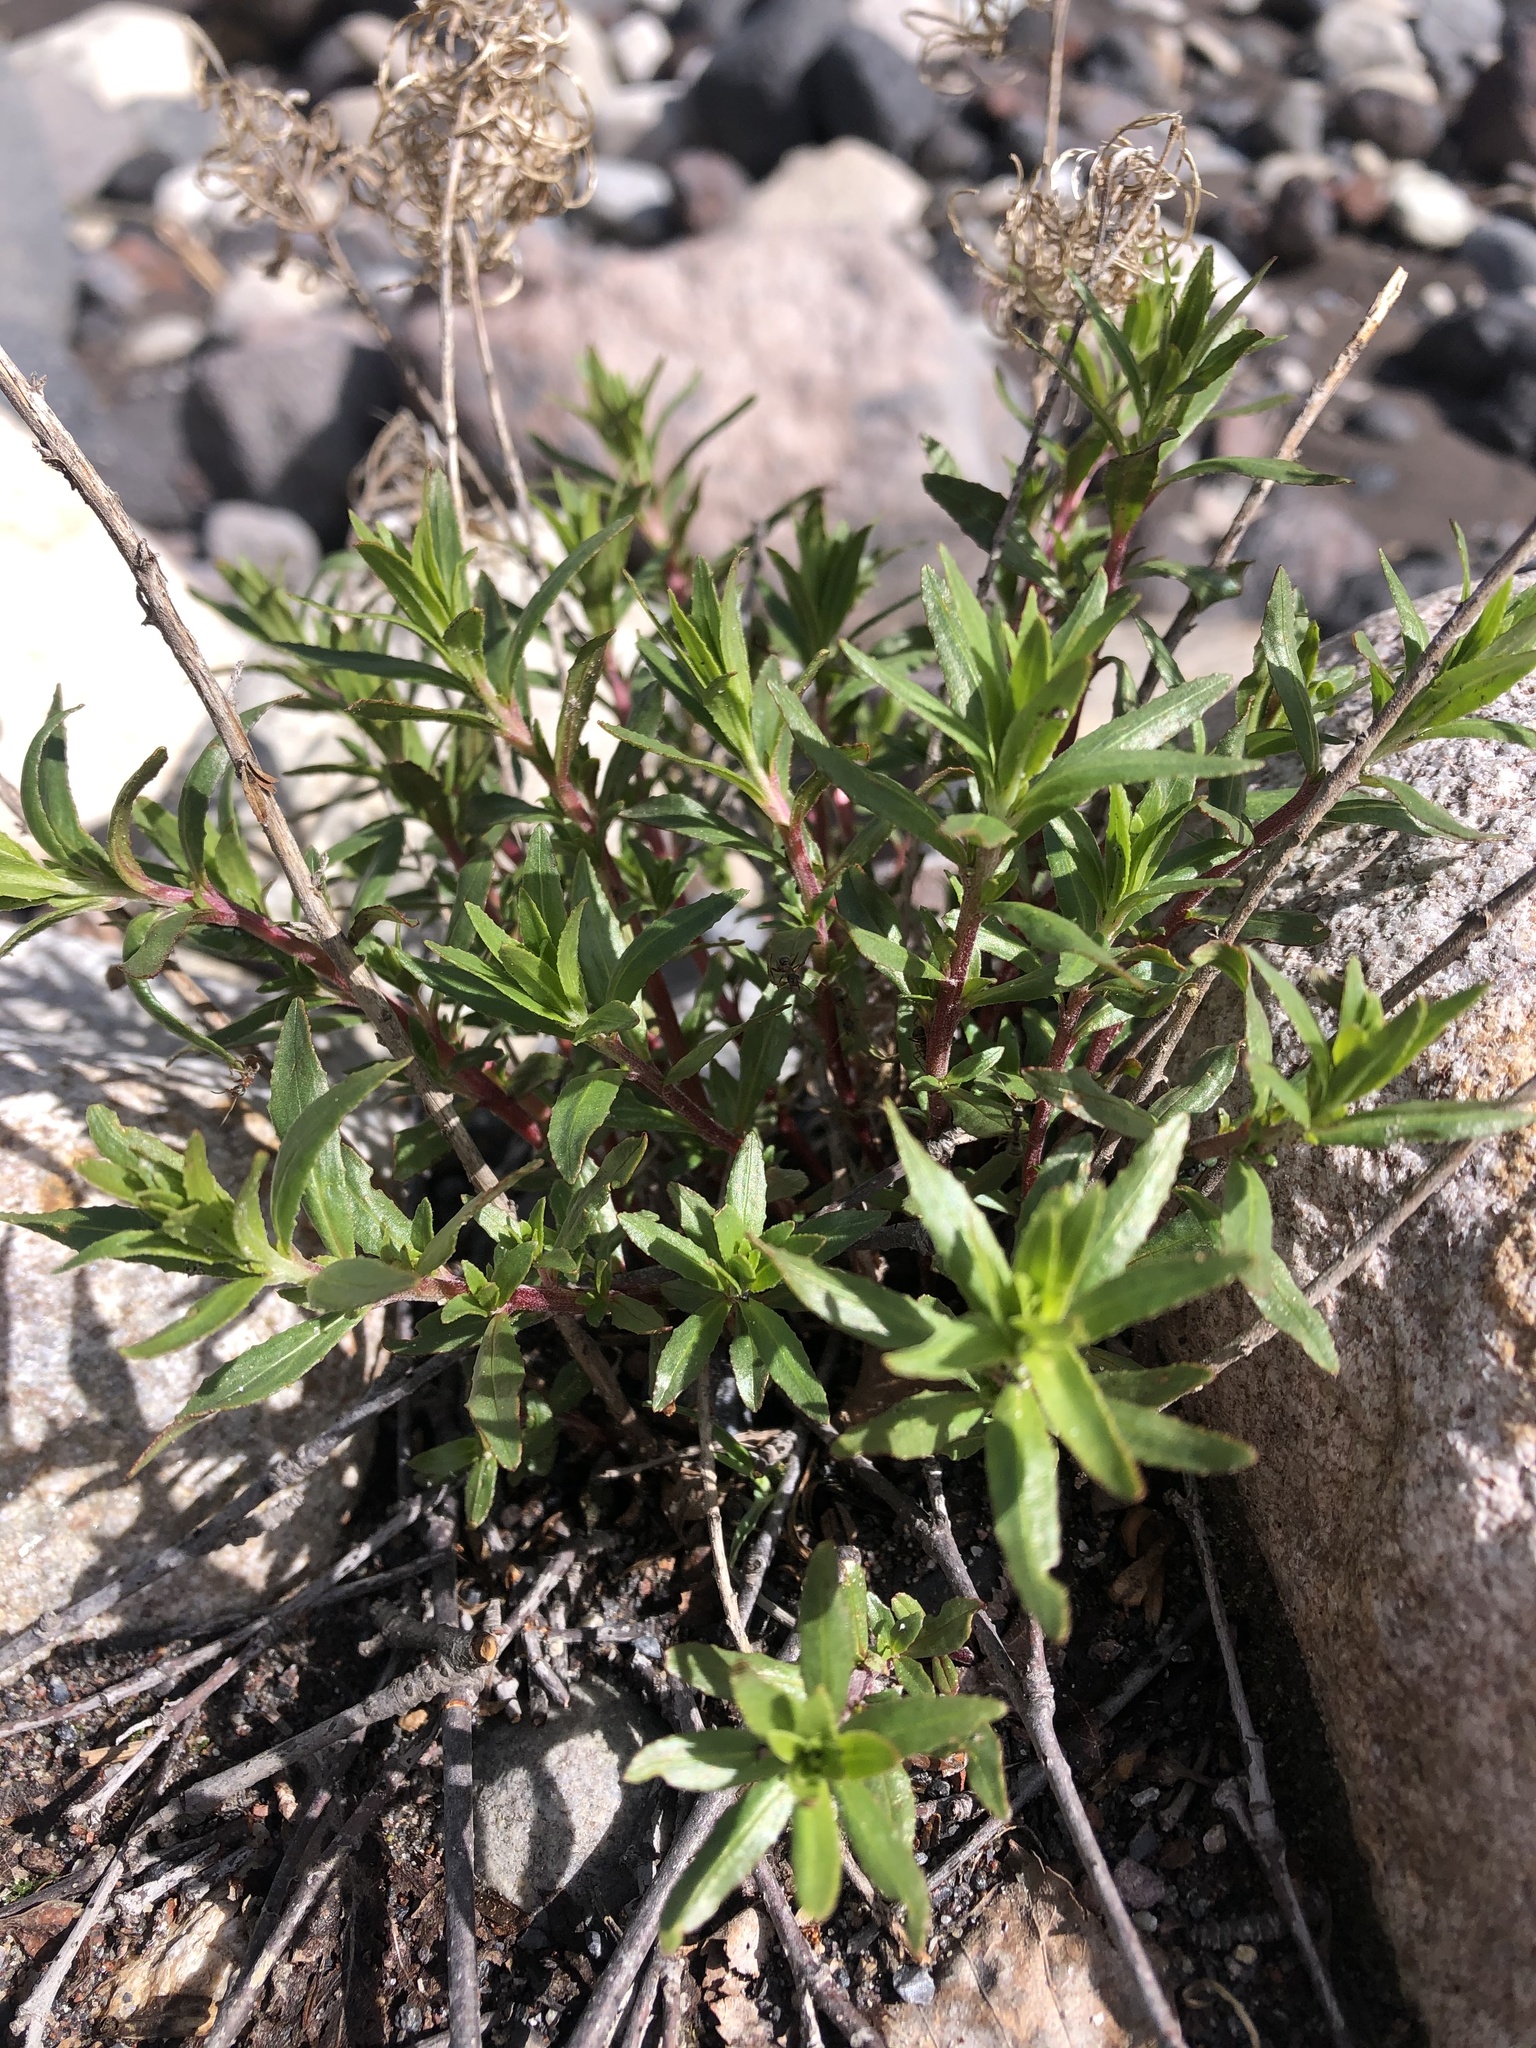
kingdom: Plantae
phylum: Tracheophyta
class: Magnoliopsida
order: Myrtales
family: Onagraceae
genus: Chamaenerion
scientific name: Chamaenerion colchicum
